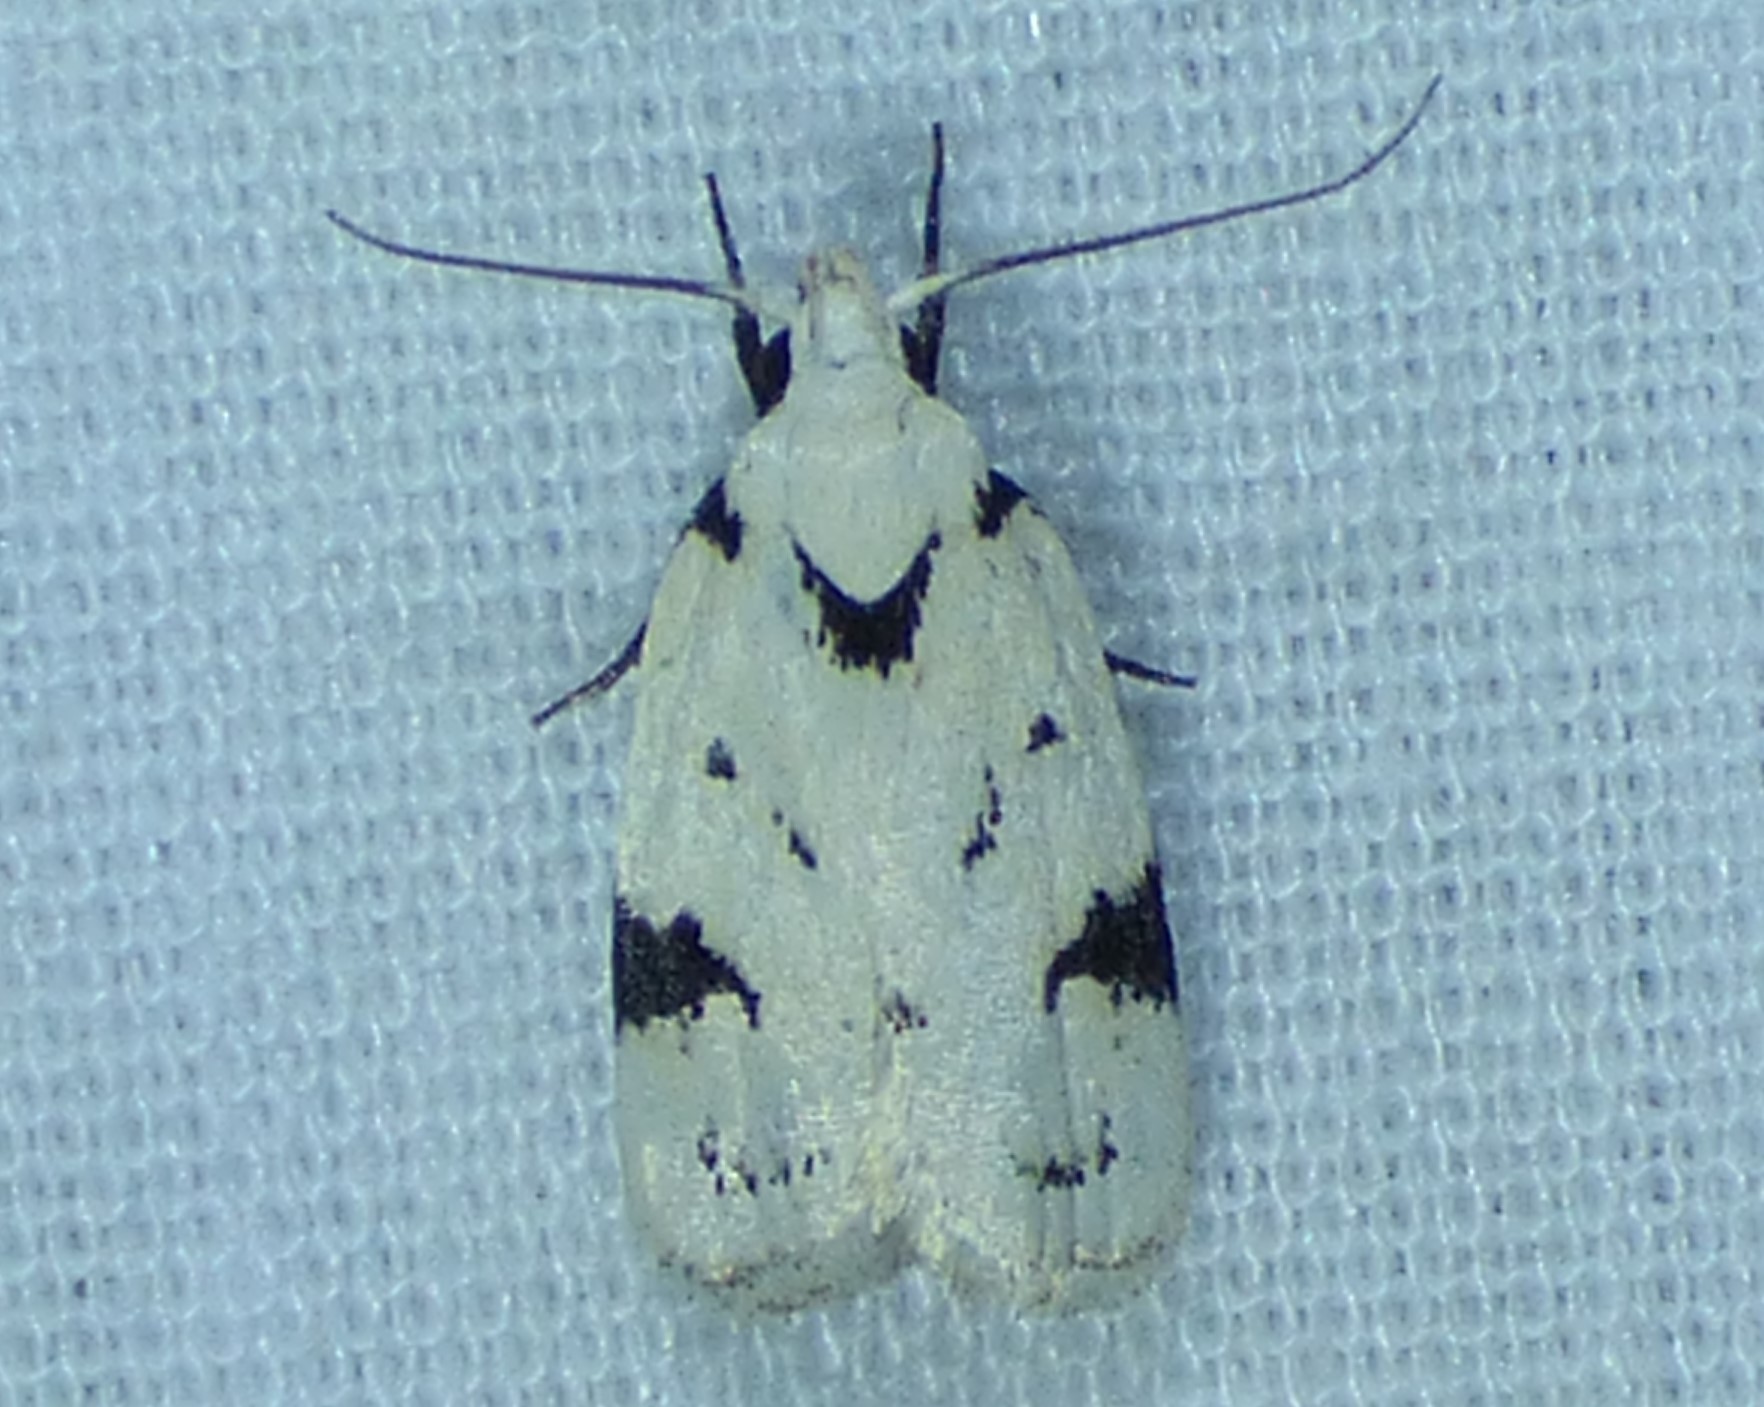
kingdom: Animalia
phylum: Arthropoda
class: Insecta
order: Lepidoptera
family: Oecophoridae
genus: Inga
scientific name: Inga sparsiciliella
